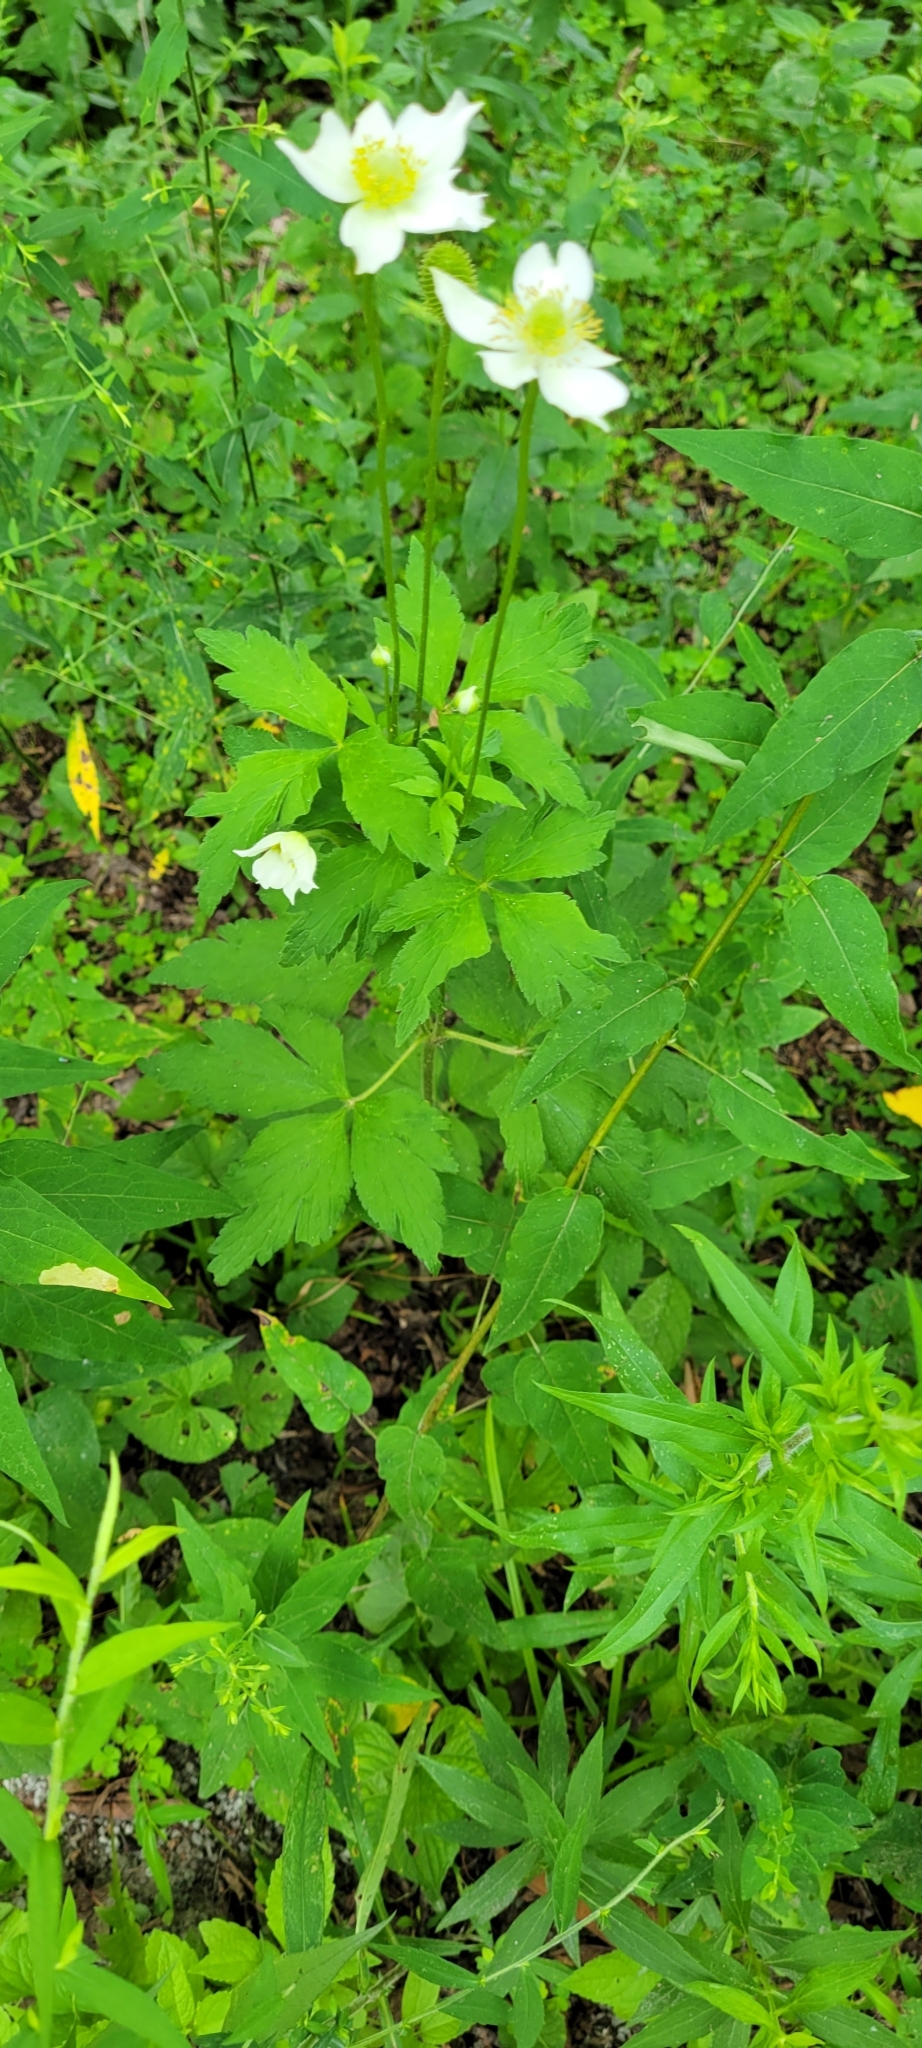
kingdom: Plantae
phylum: Tracheophyta
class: Magnoliopsida
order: Ranunculales
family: Ranunculaceae
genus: Anemone
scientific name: Anemone virginiana
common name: Tall anemone
